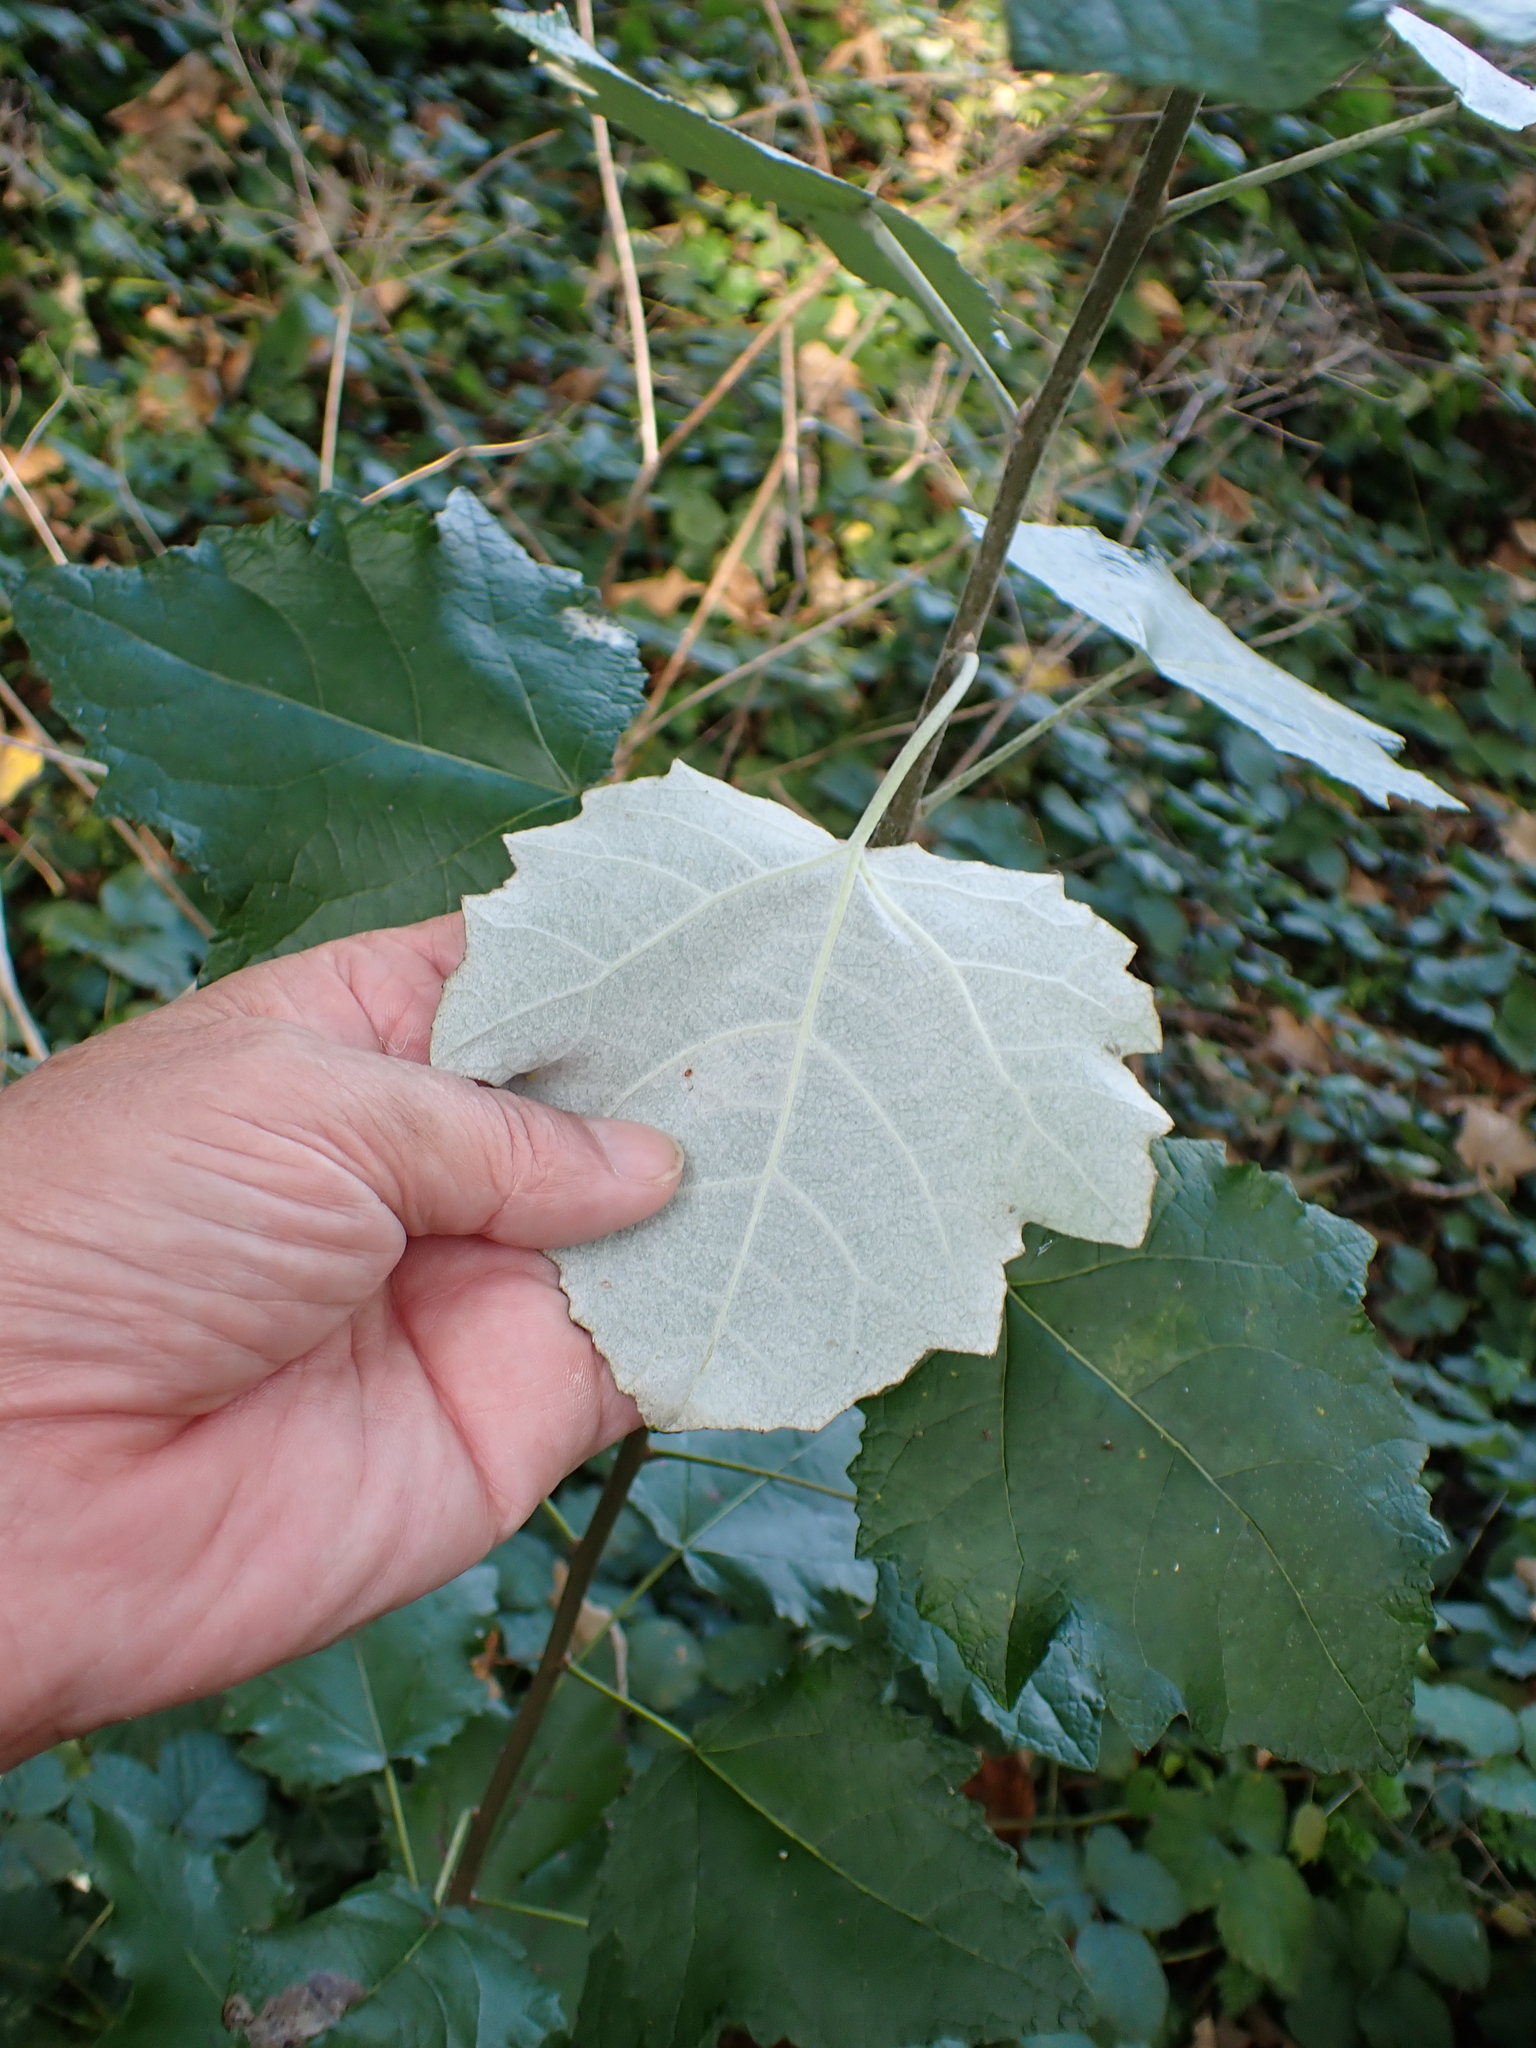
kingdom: Plantae
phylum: Tracheophyta
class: Magnoliopsida
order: Malpighiales
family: Salicaceae
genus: Populus
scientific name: Populus canescens
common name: Gray poplar
